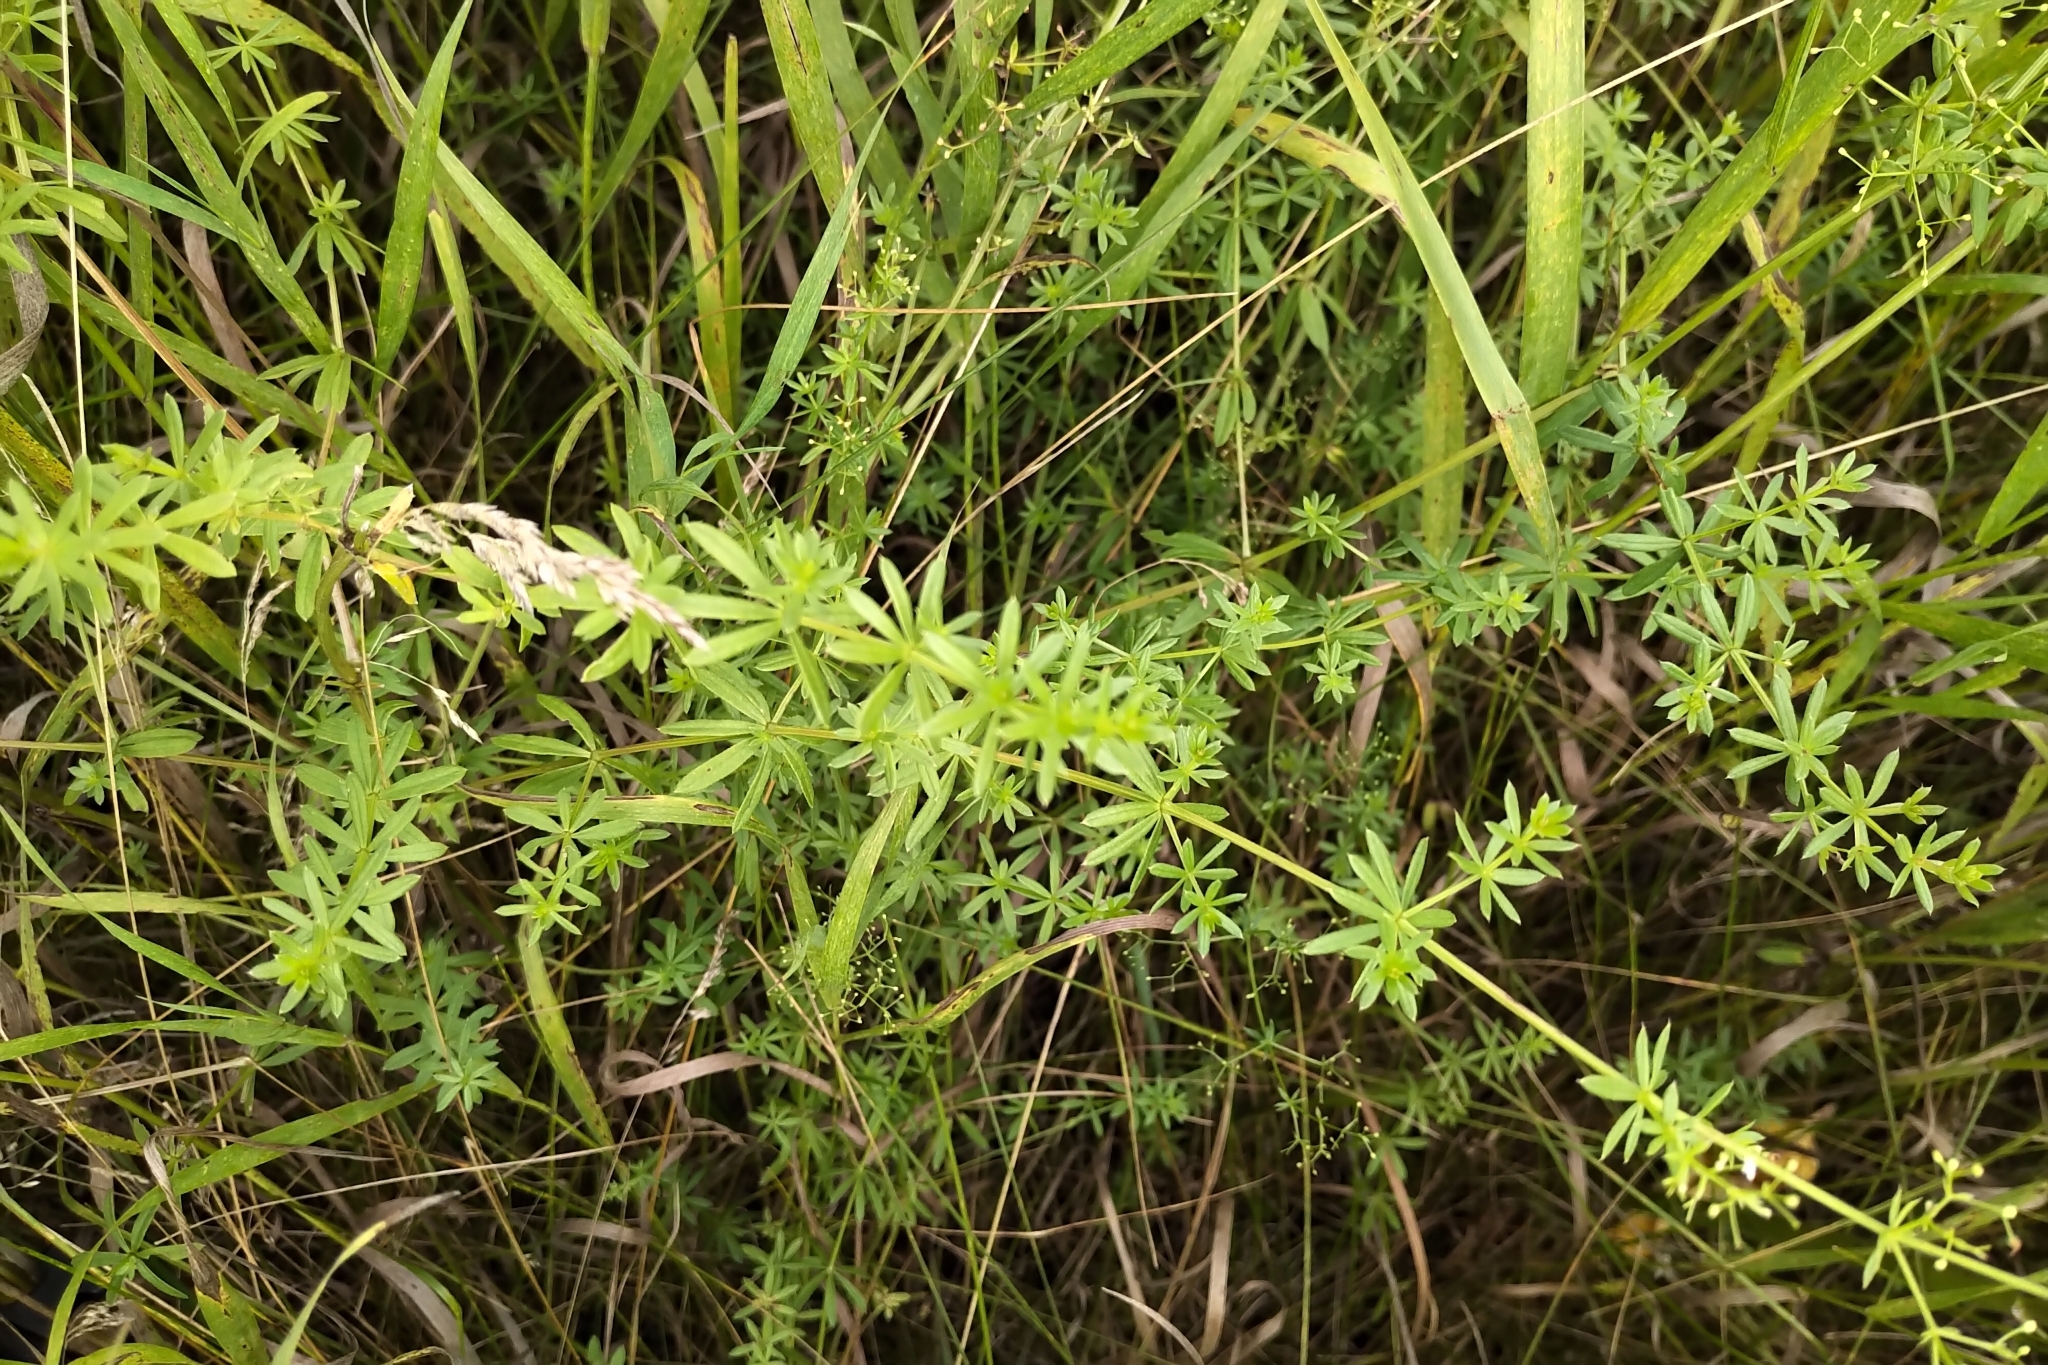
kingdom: Plantae
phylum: Tracheophyta
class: Magnoliopsida
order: Gentianales
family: Rubiaceae
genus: Galium
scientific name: Galium mollugo
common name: Hedge bedstraw
